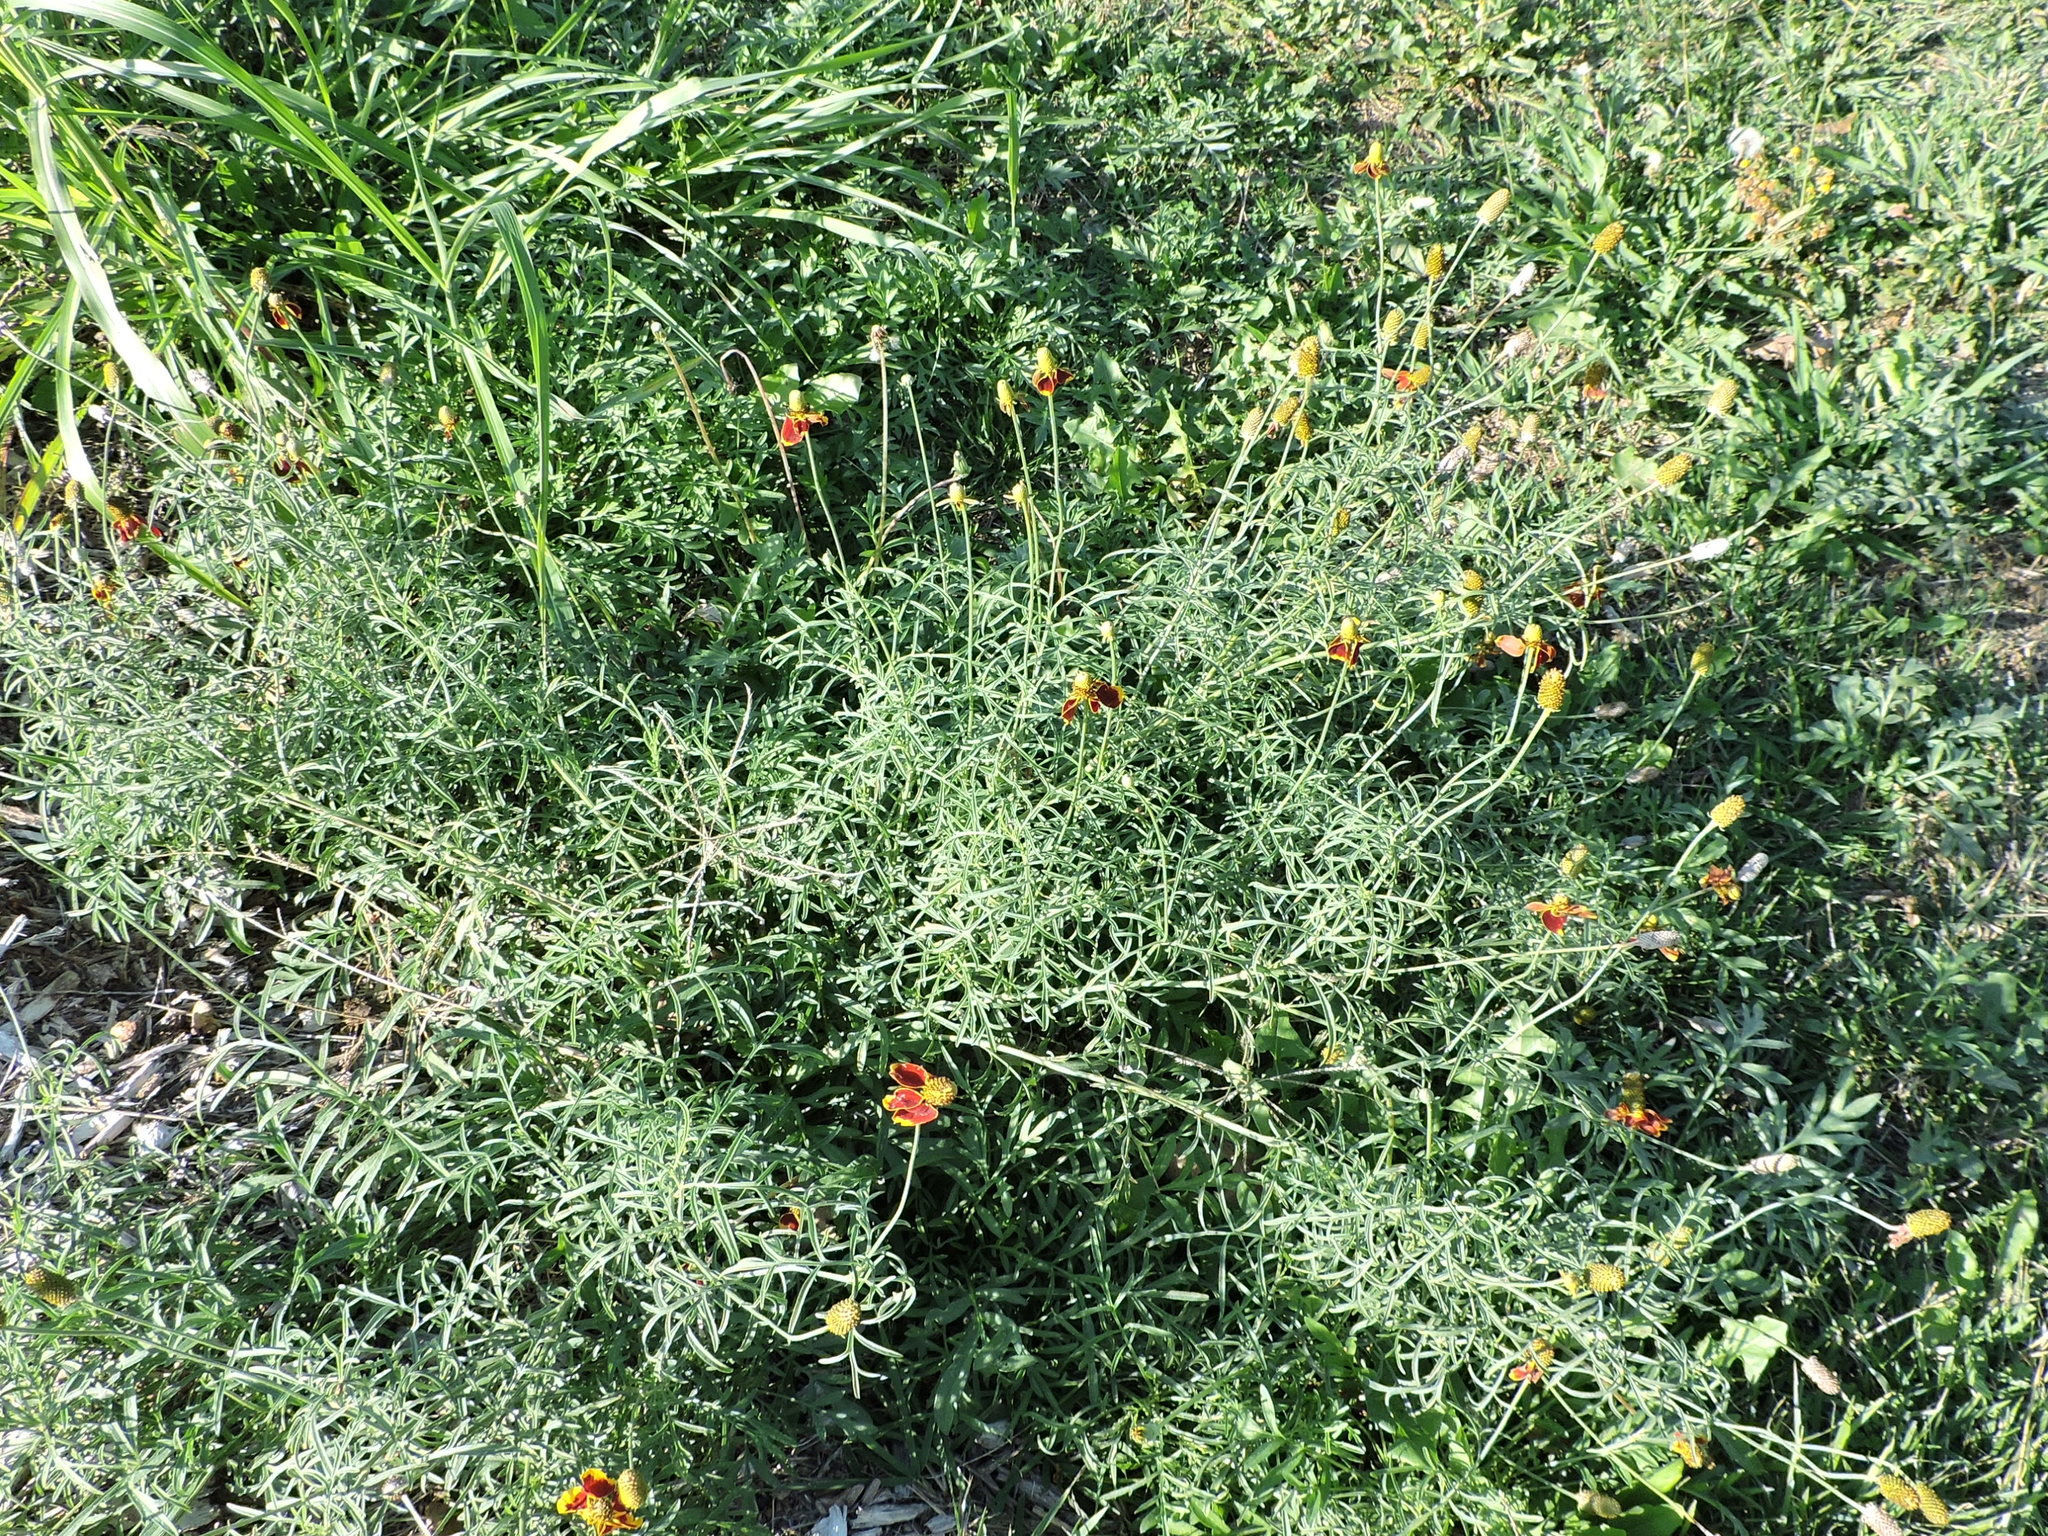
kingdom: Plantae
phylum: Tracheophyta
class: Magnoliopsida
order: Asterales
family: Asteraceae
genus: Ratibida
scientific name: Ratibida columnifera
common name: Prairie coneflower
